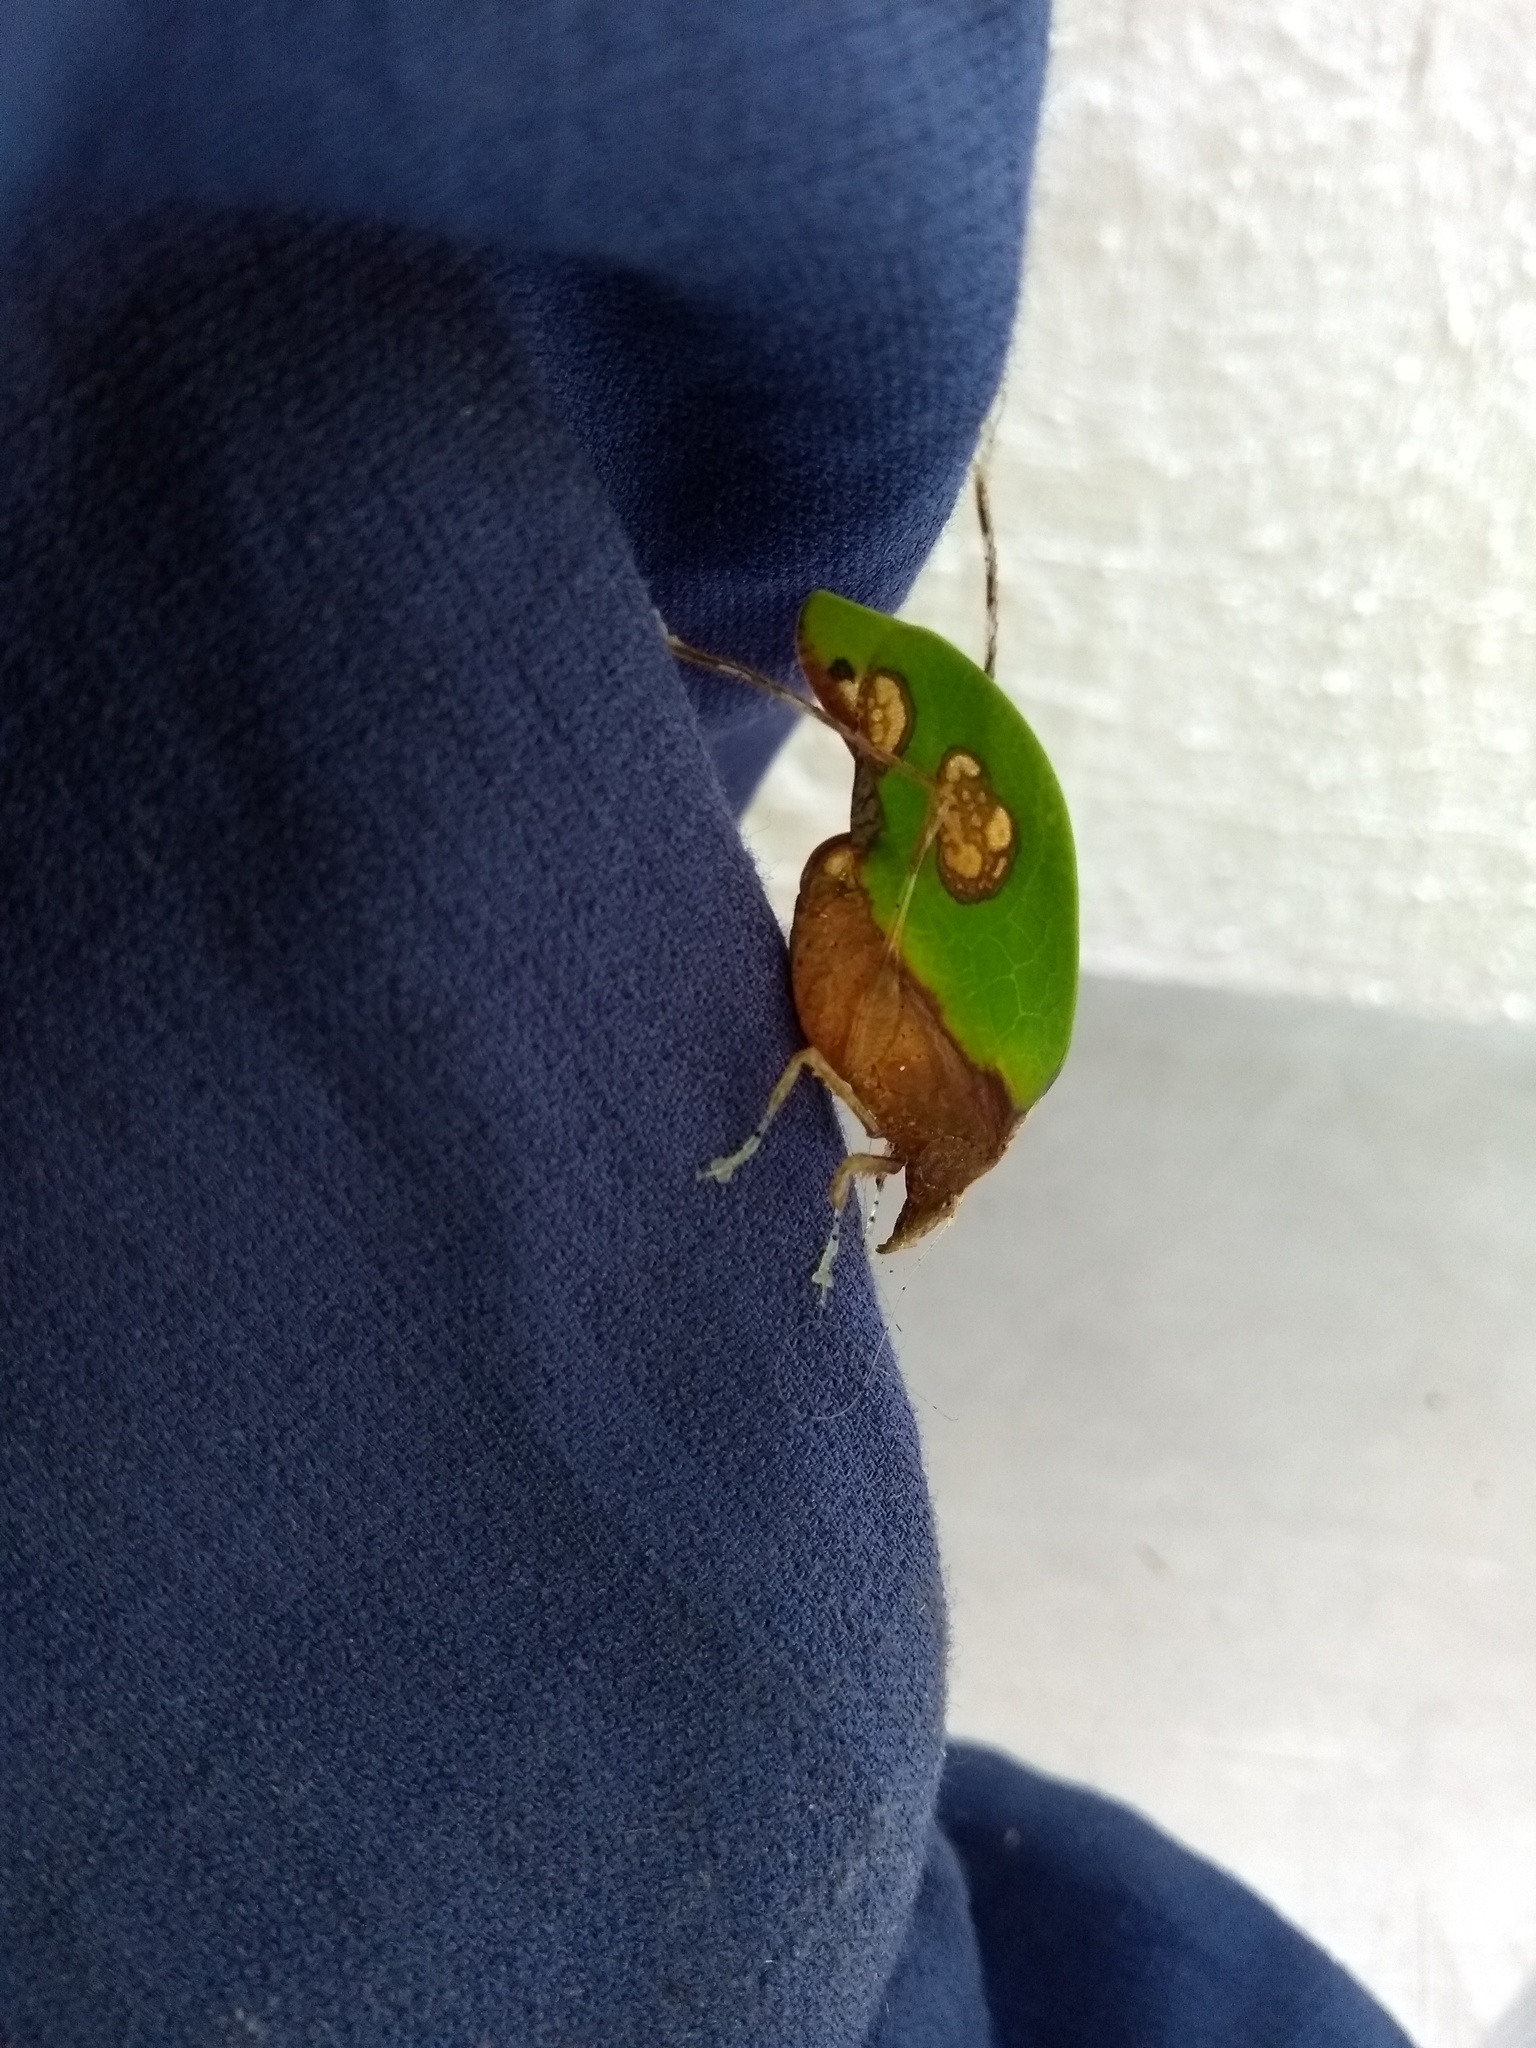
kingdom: Animalia
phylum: Arthropoda
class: Insecta
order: Orthoptera
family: Tettigoniidae
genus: Pycnopalpa
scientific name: Pycnopalpa bicordata
